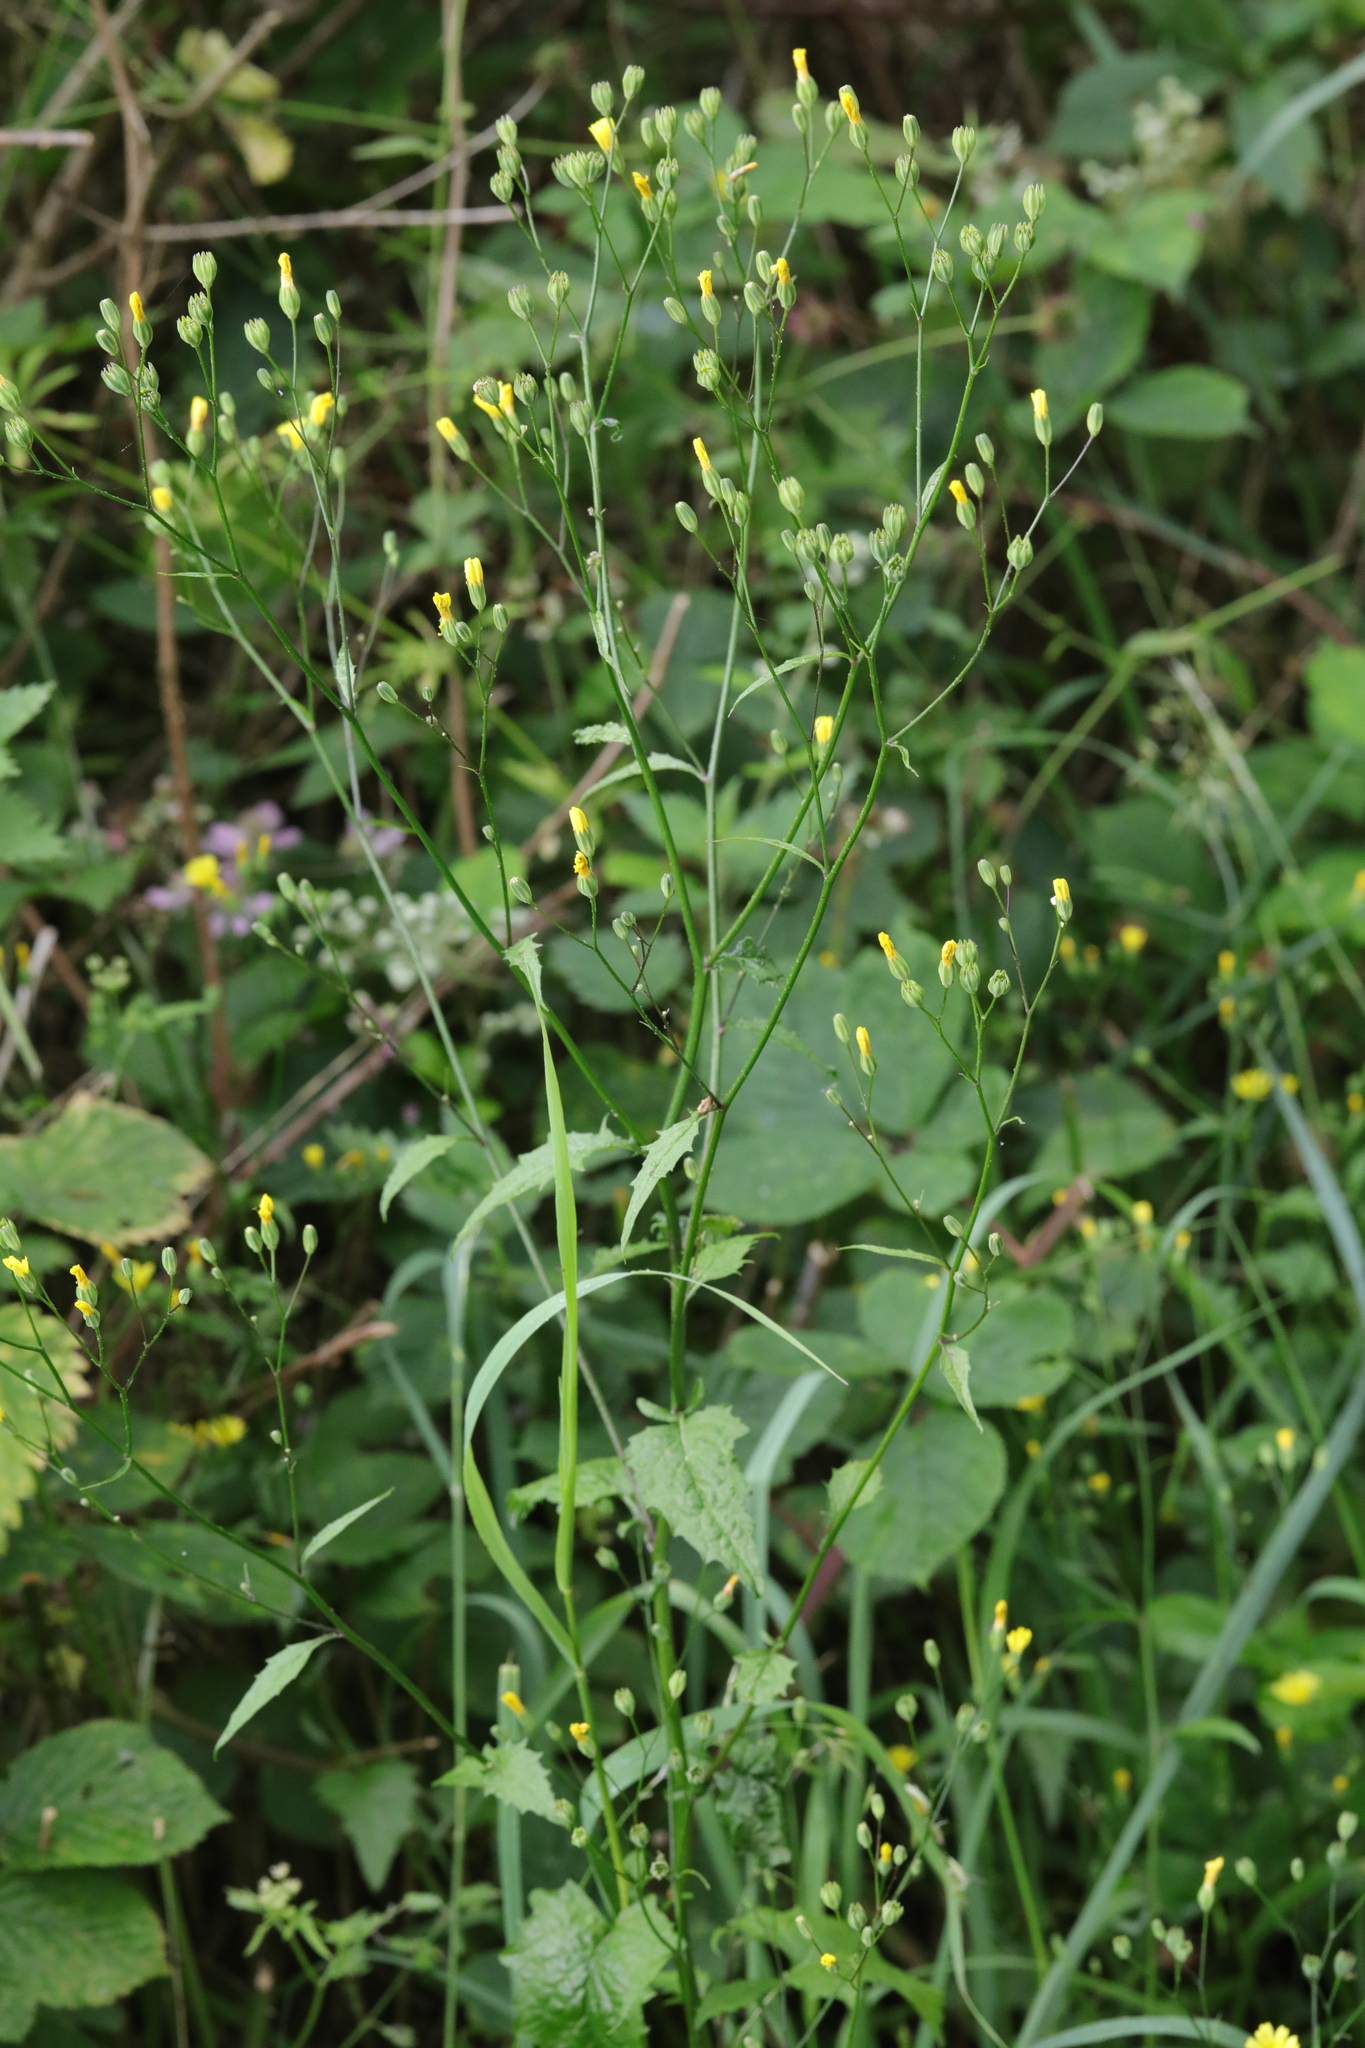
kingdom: Plantae
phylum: Tracheophyta
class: Magnoliopsida
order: Asterales
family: Asteraceae
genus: Lapsana
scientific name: Lapsana communis
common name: Nipplewort
